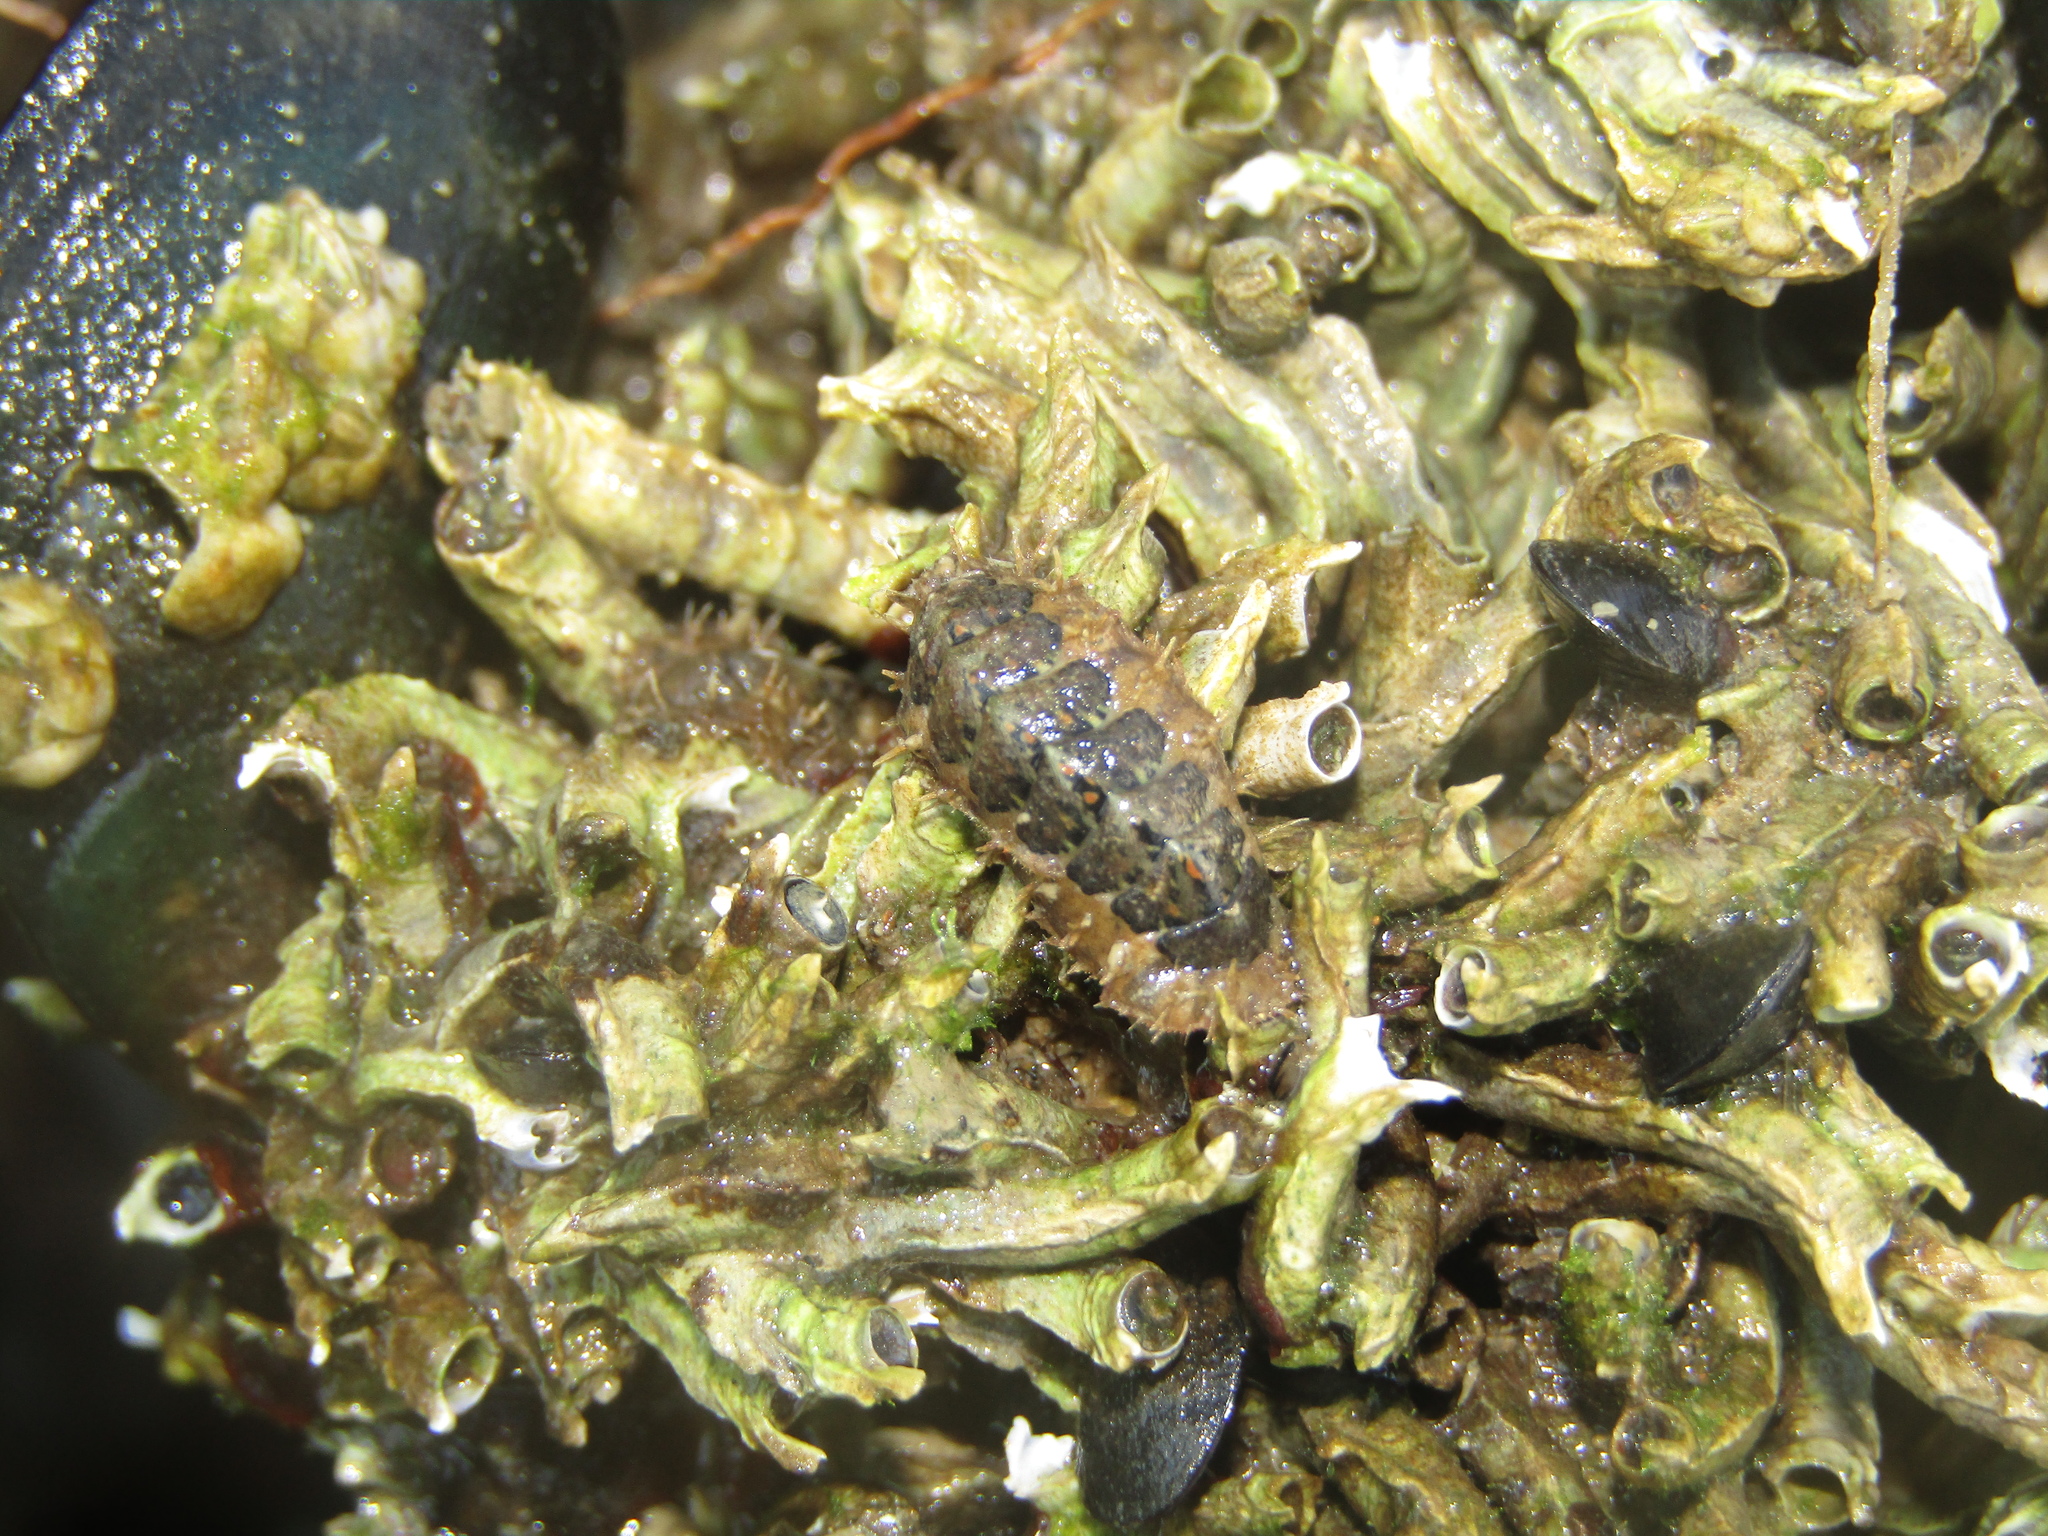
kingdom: Animalia
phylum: Mollusca
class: Polyplacophora
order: Chitonida
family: Mopaliidae
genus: Plaxiphora
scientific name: Plaxiphora caelata
